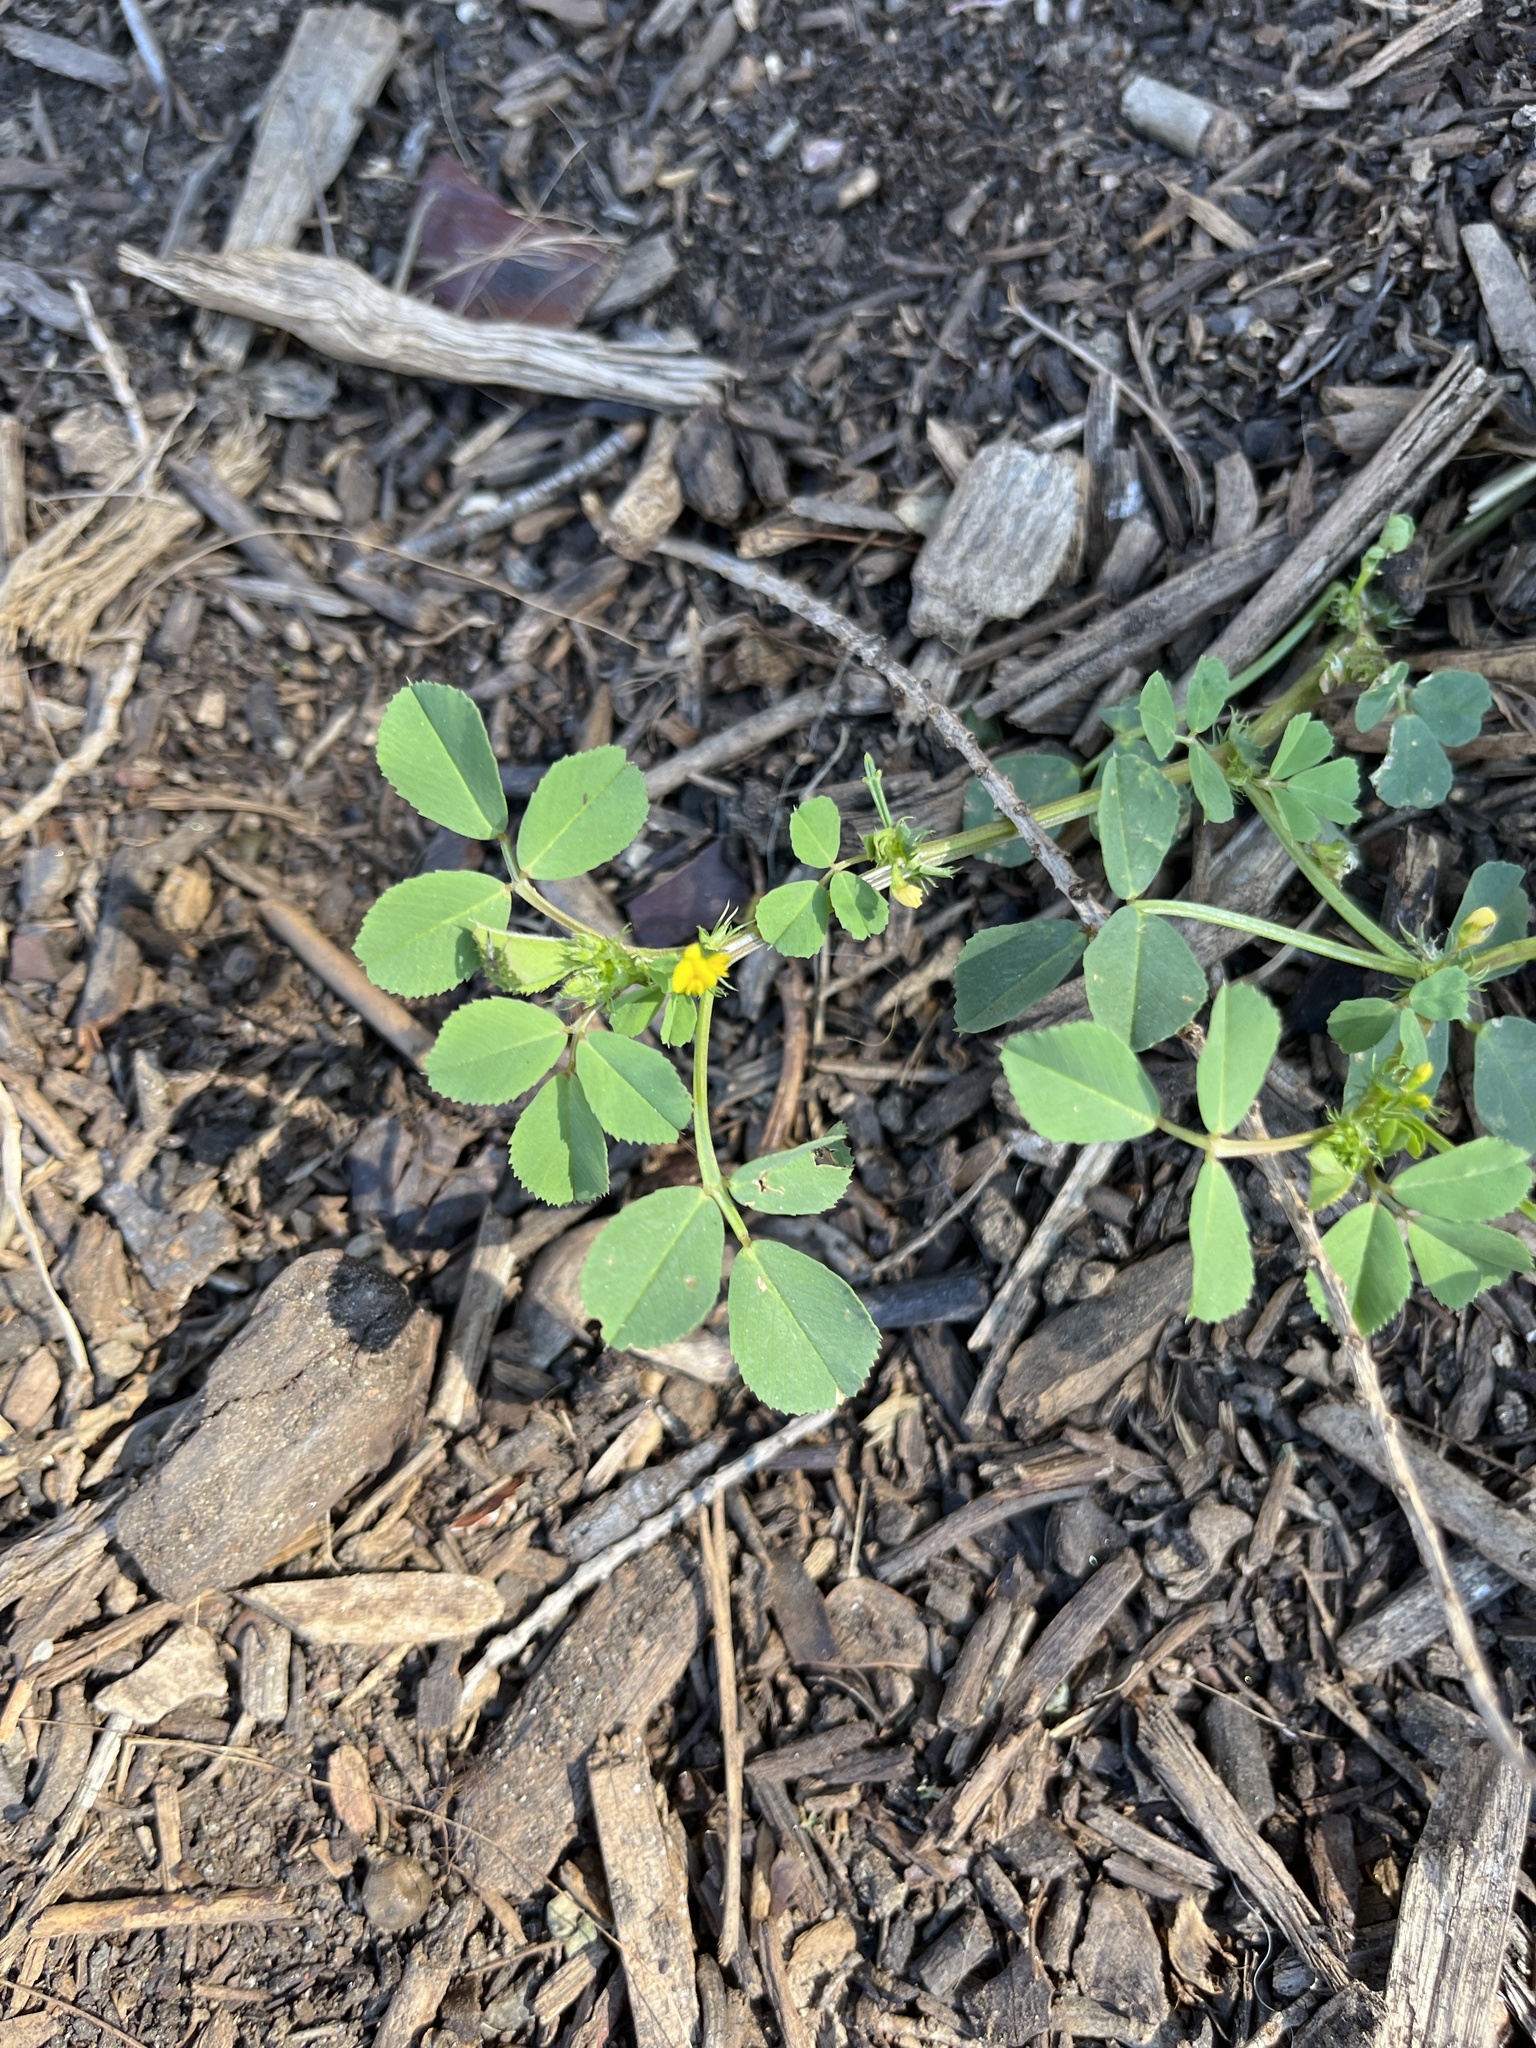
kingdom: Plantae
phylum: Tracheophyta
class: Magnoliopsida
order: Fabales
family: Fabaceae
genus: Medicago
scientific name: Medicago polymorpha
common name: Burclover
